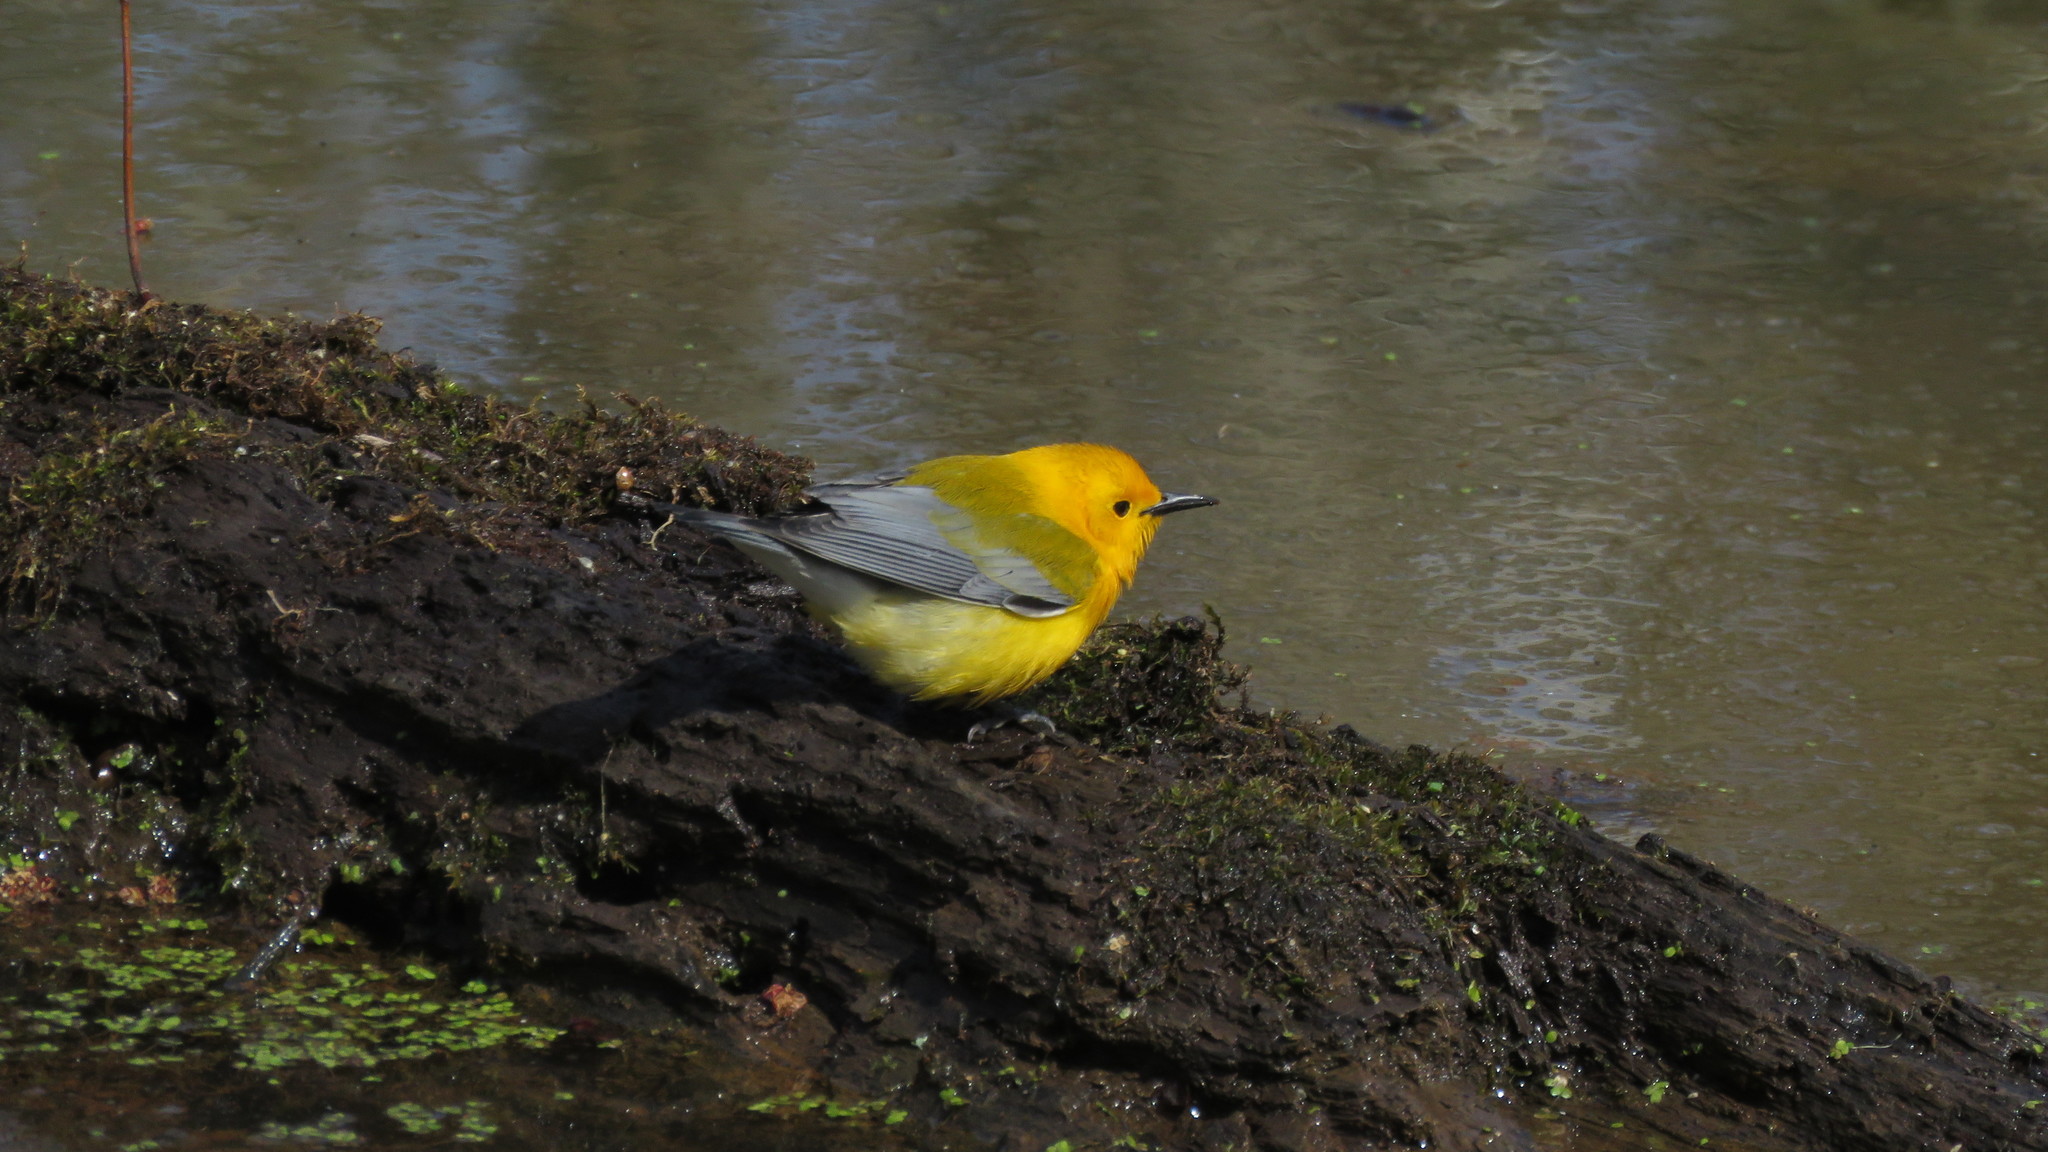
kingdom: Animalia
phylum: Chordata
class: Aves
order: Passeriformes
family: Parulidae
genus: Protonotaria
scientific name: Protonotaria citrea
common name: Prothonotary warbler
